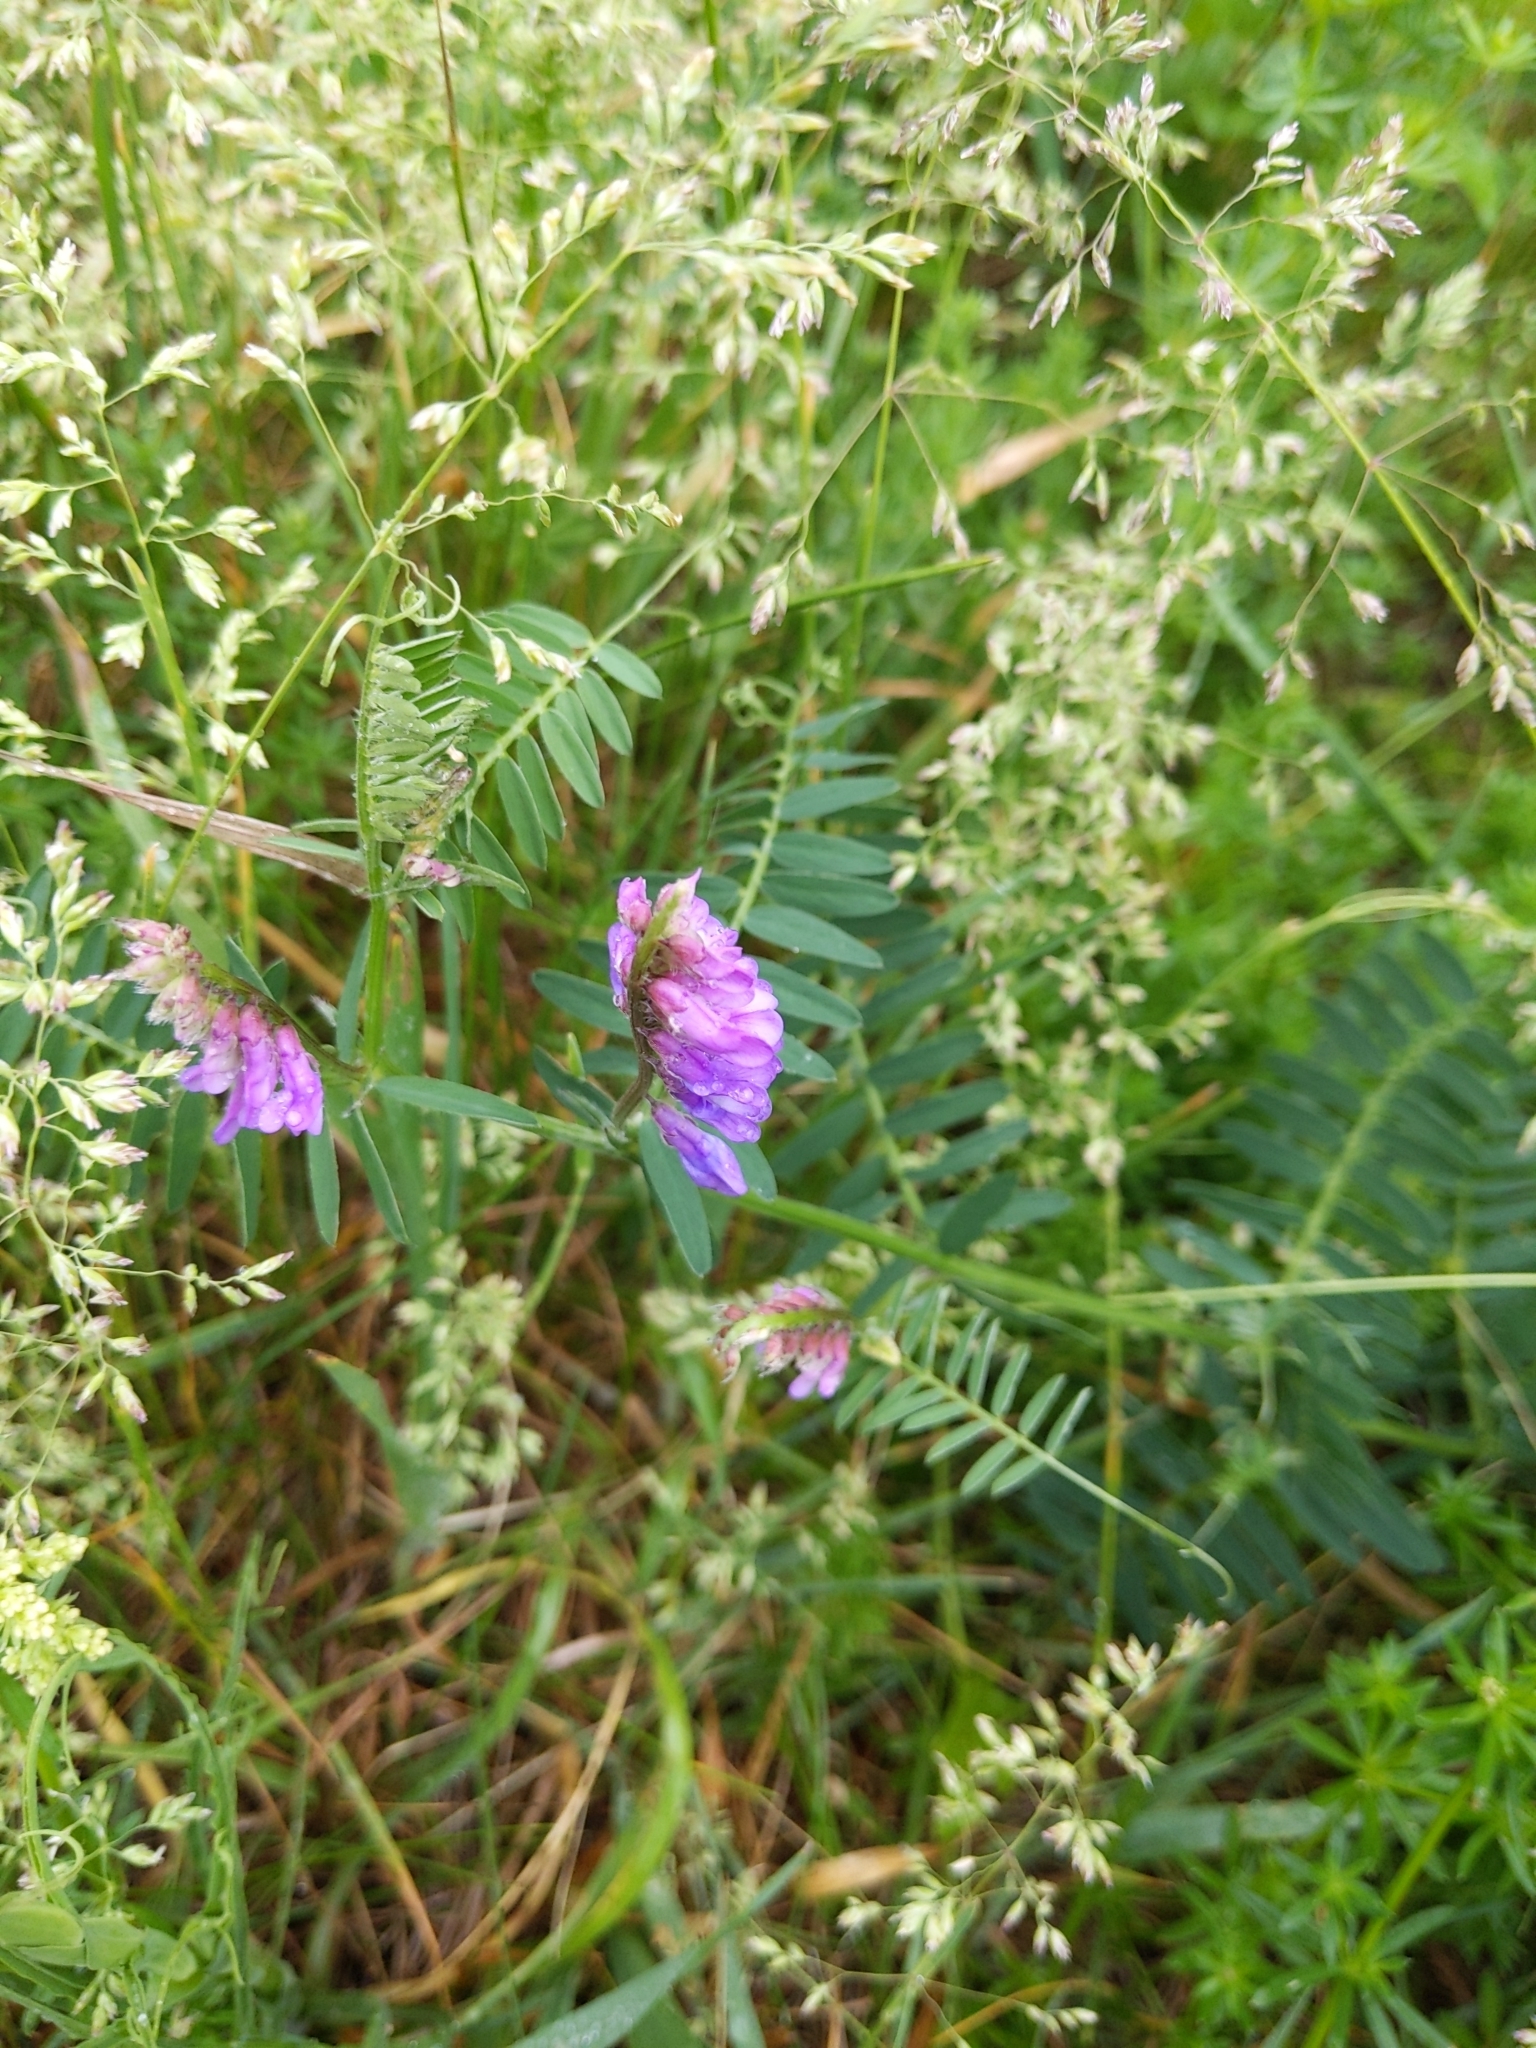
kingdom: Plantae
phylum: Tracheophyta
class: Magnoliopsida
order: Fabales
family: Fabaceae
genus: Vicia
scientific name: Vicia cracca
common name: Bird vetch
